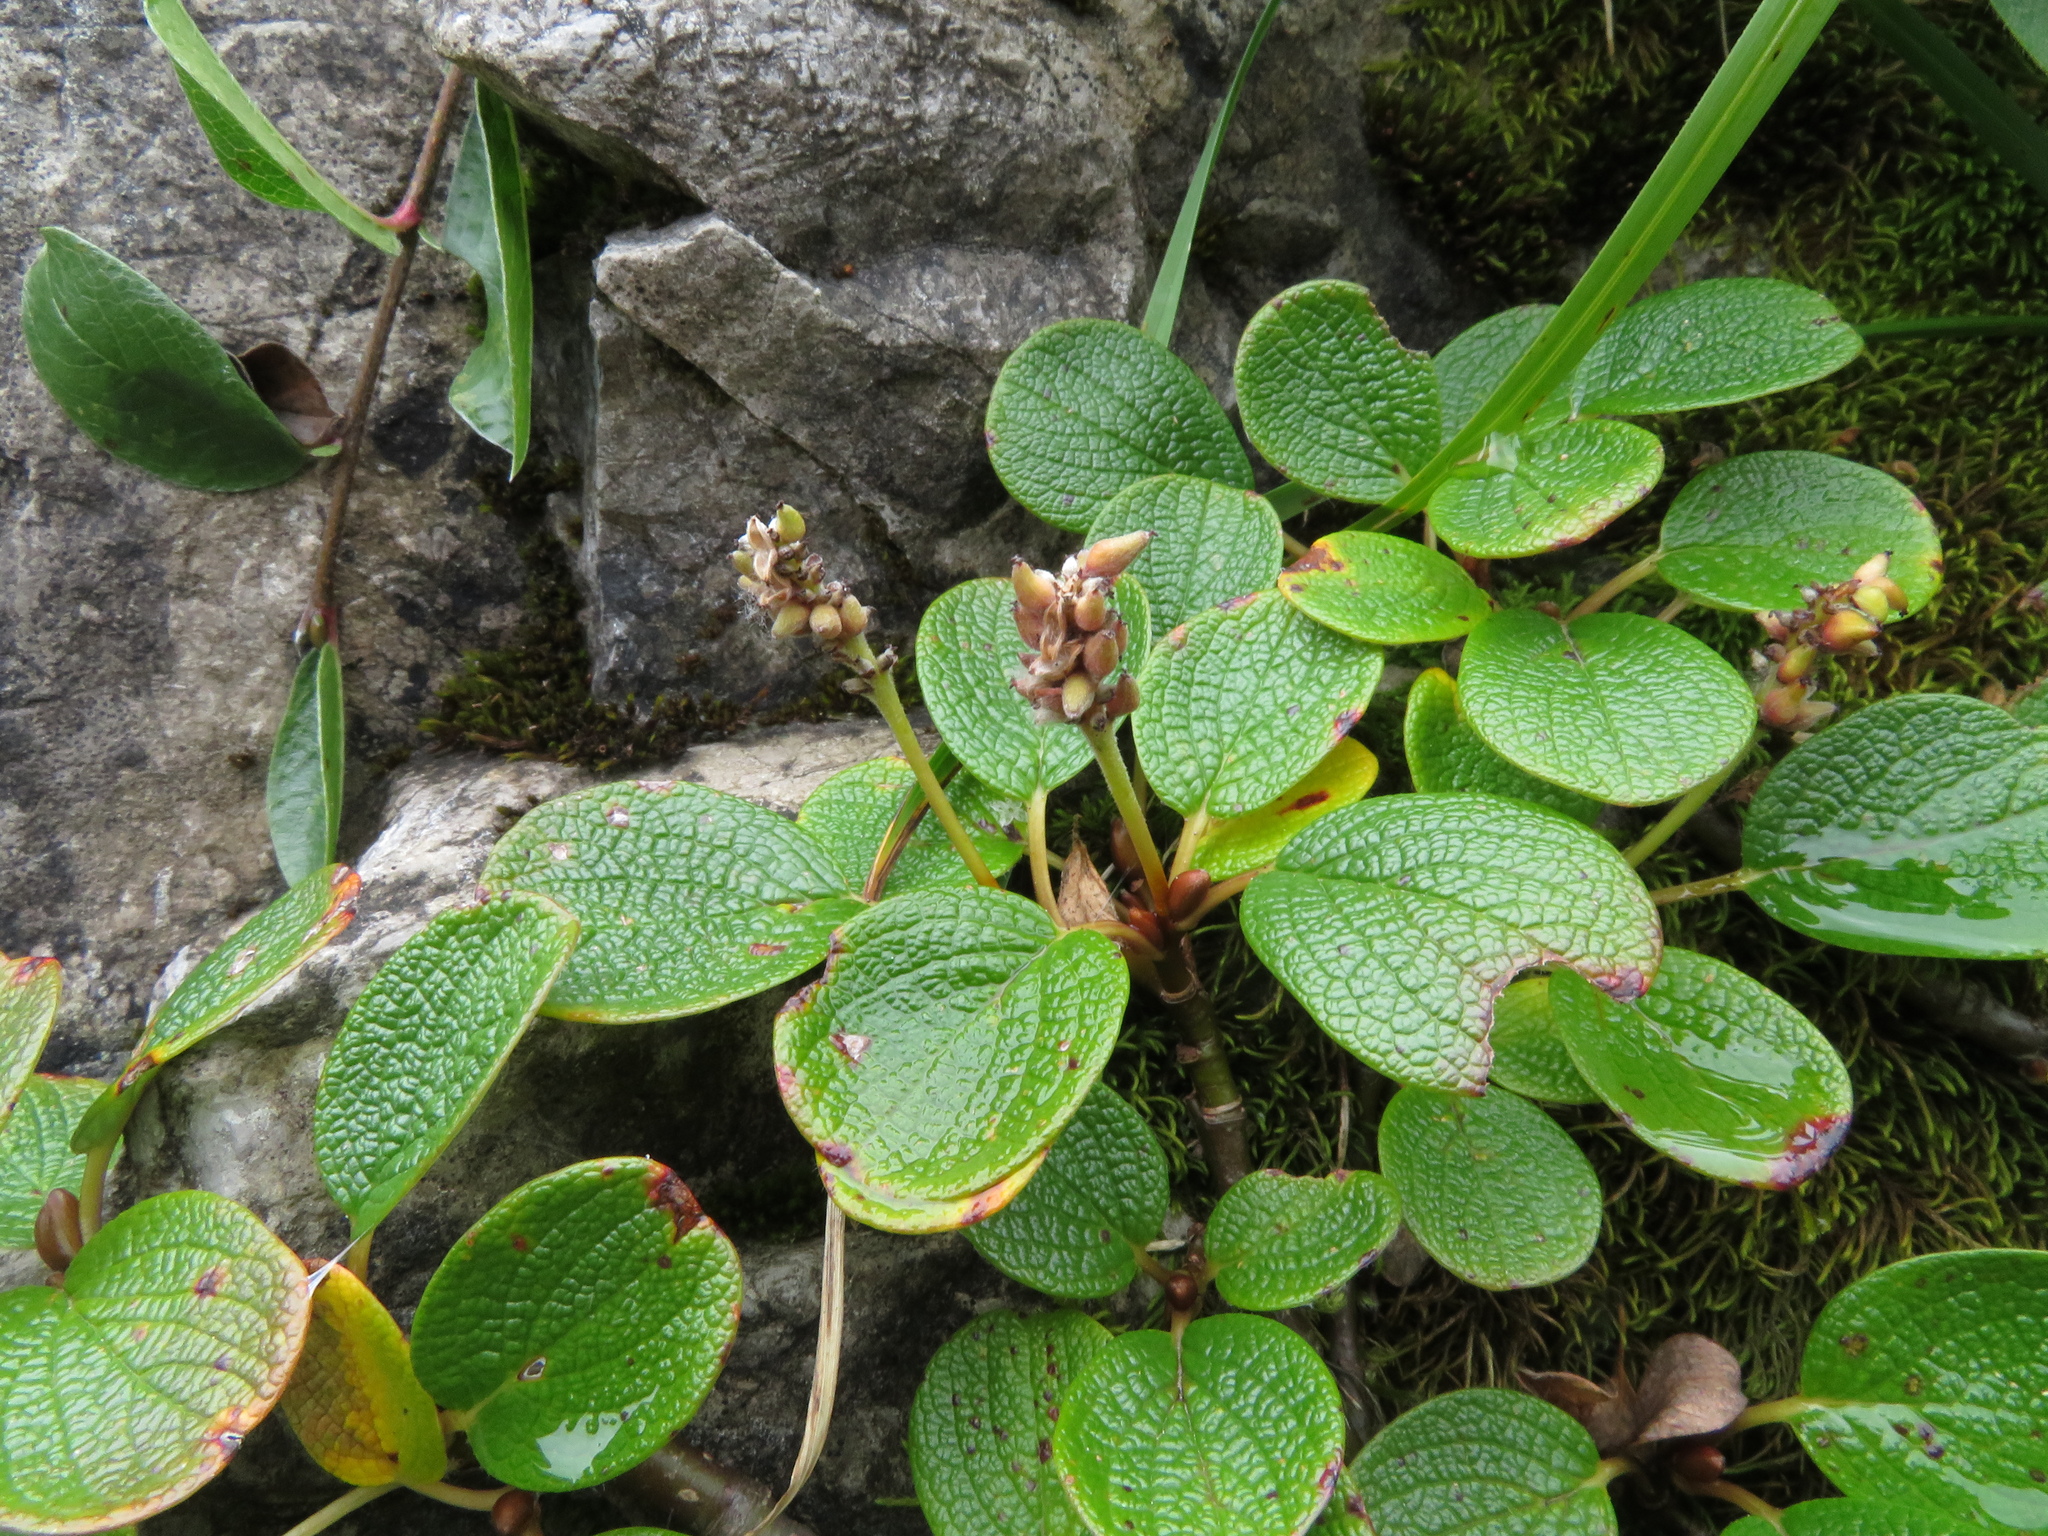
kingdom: Plantae
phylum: Tracheophyta
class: Magnoliopsida
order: Malpighiales
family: Salicaceae
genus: Salix
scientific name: Salix reticulata
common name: Net-leaved willow
